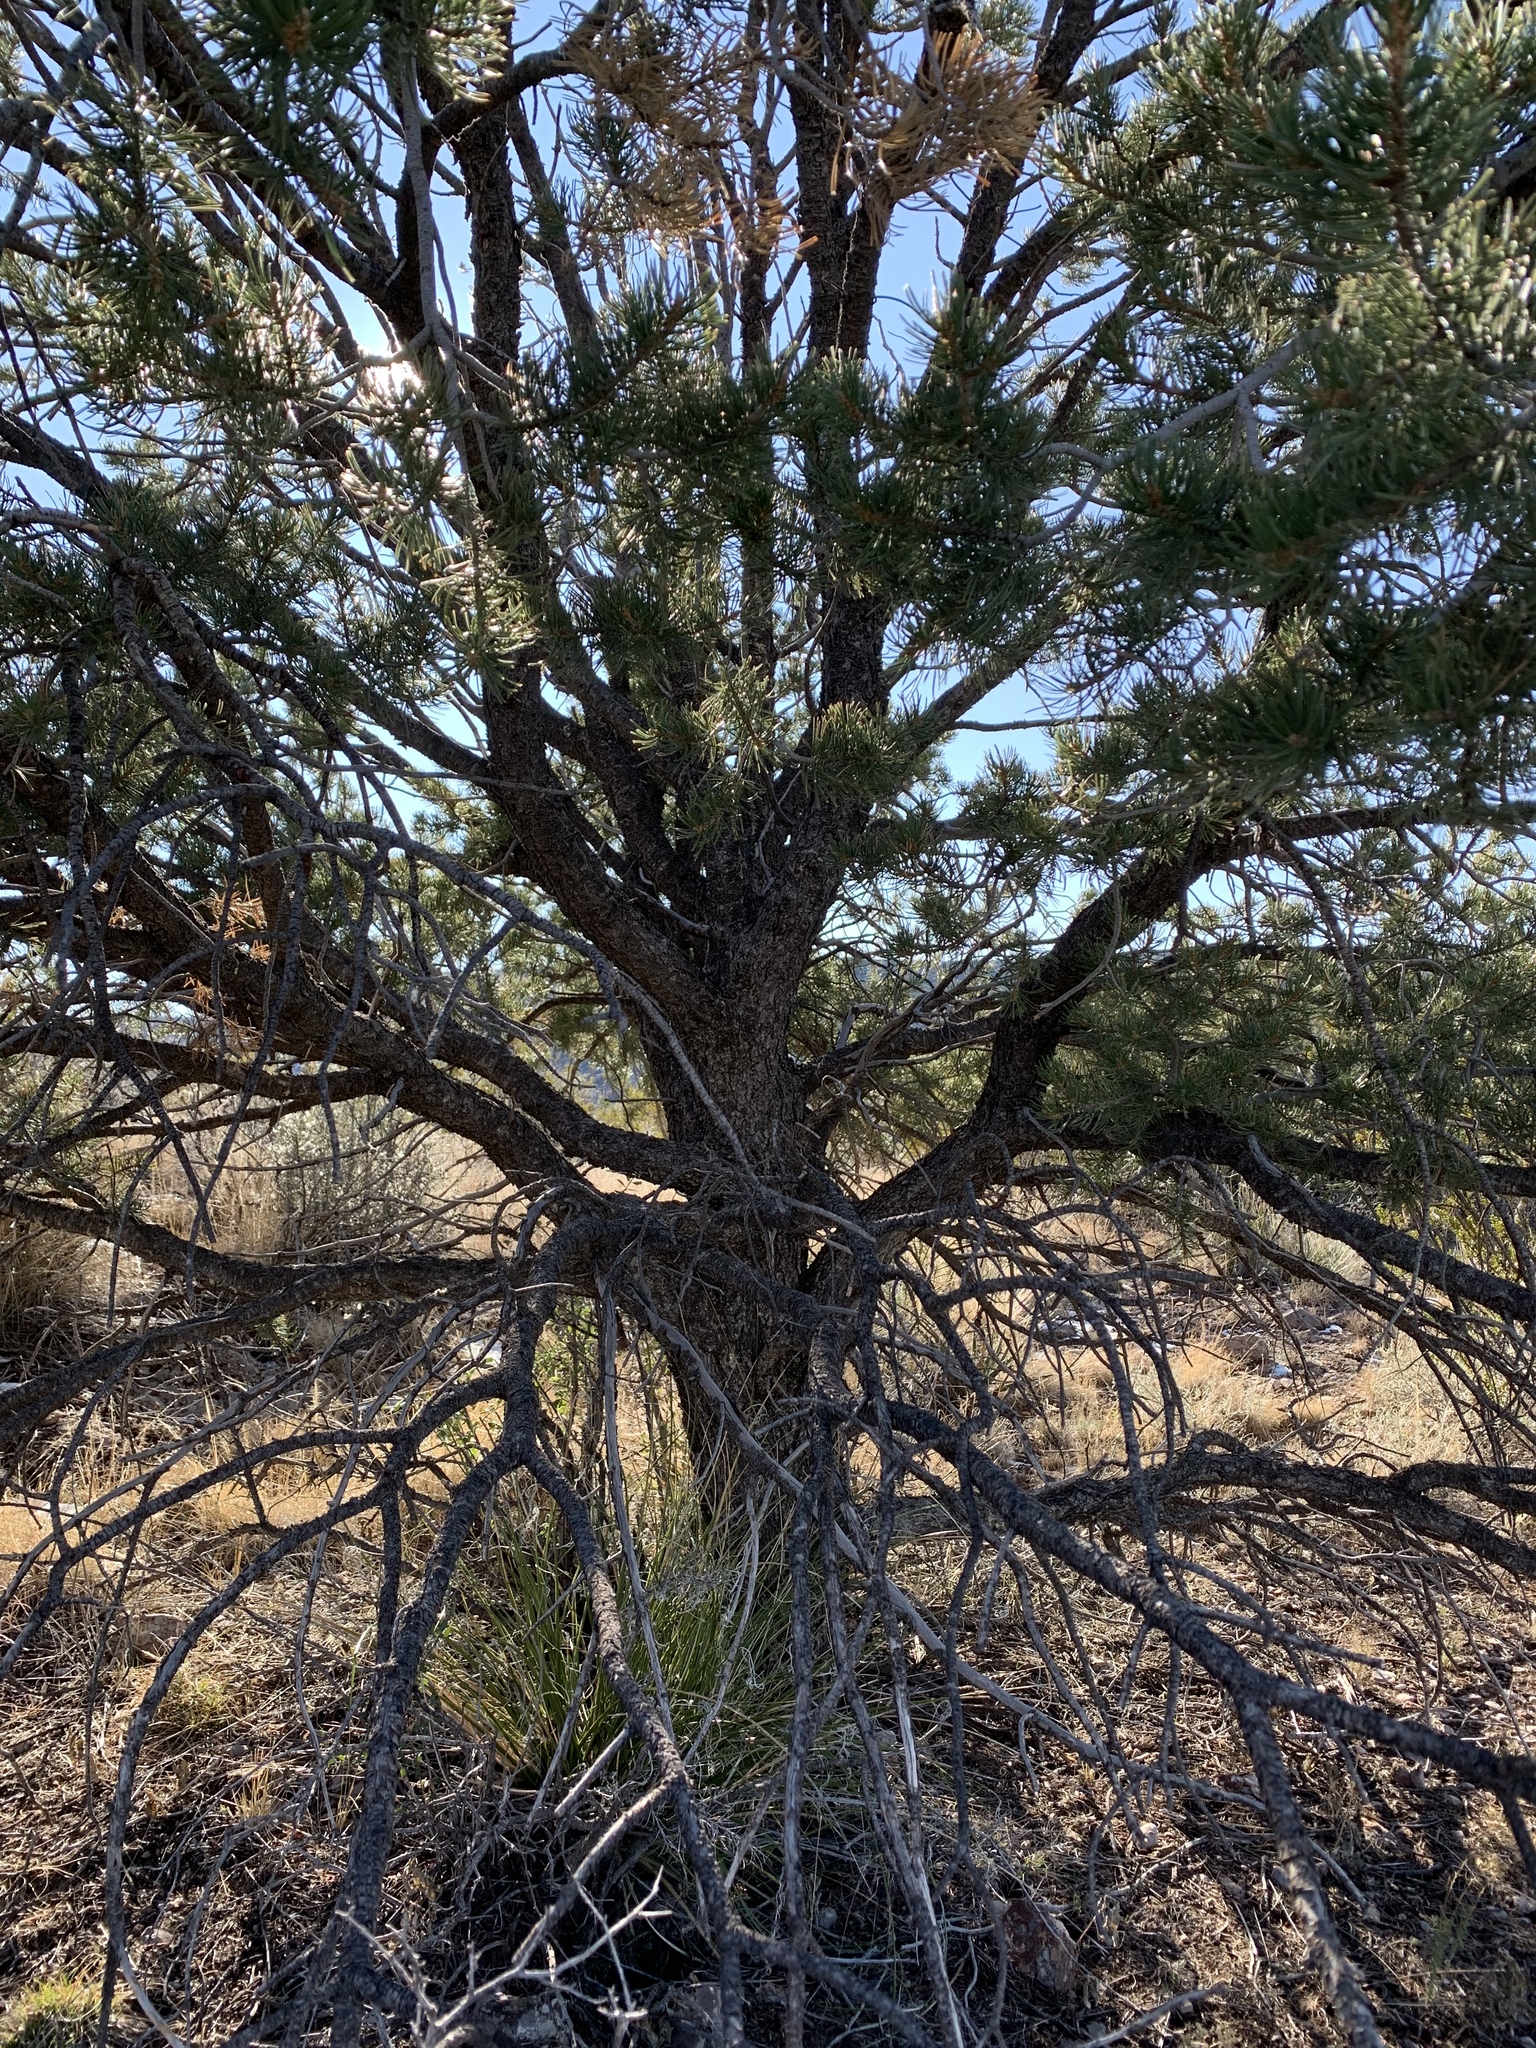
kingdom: Plantae
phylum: Tracheophyta
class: Pinopsida
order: Pinales
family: Pinaceae
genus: Pinus
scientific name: Pinus edulis
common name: Colorado pinyon
